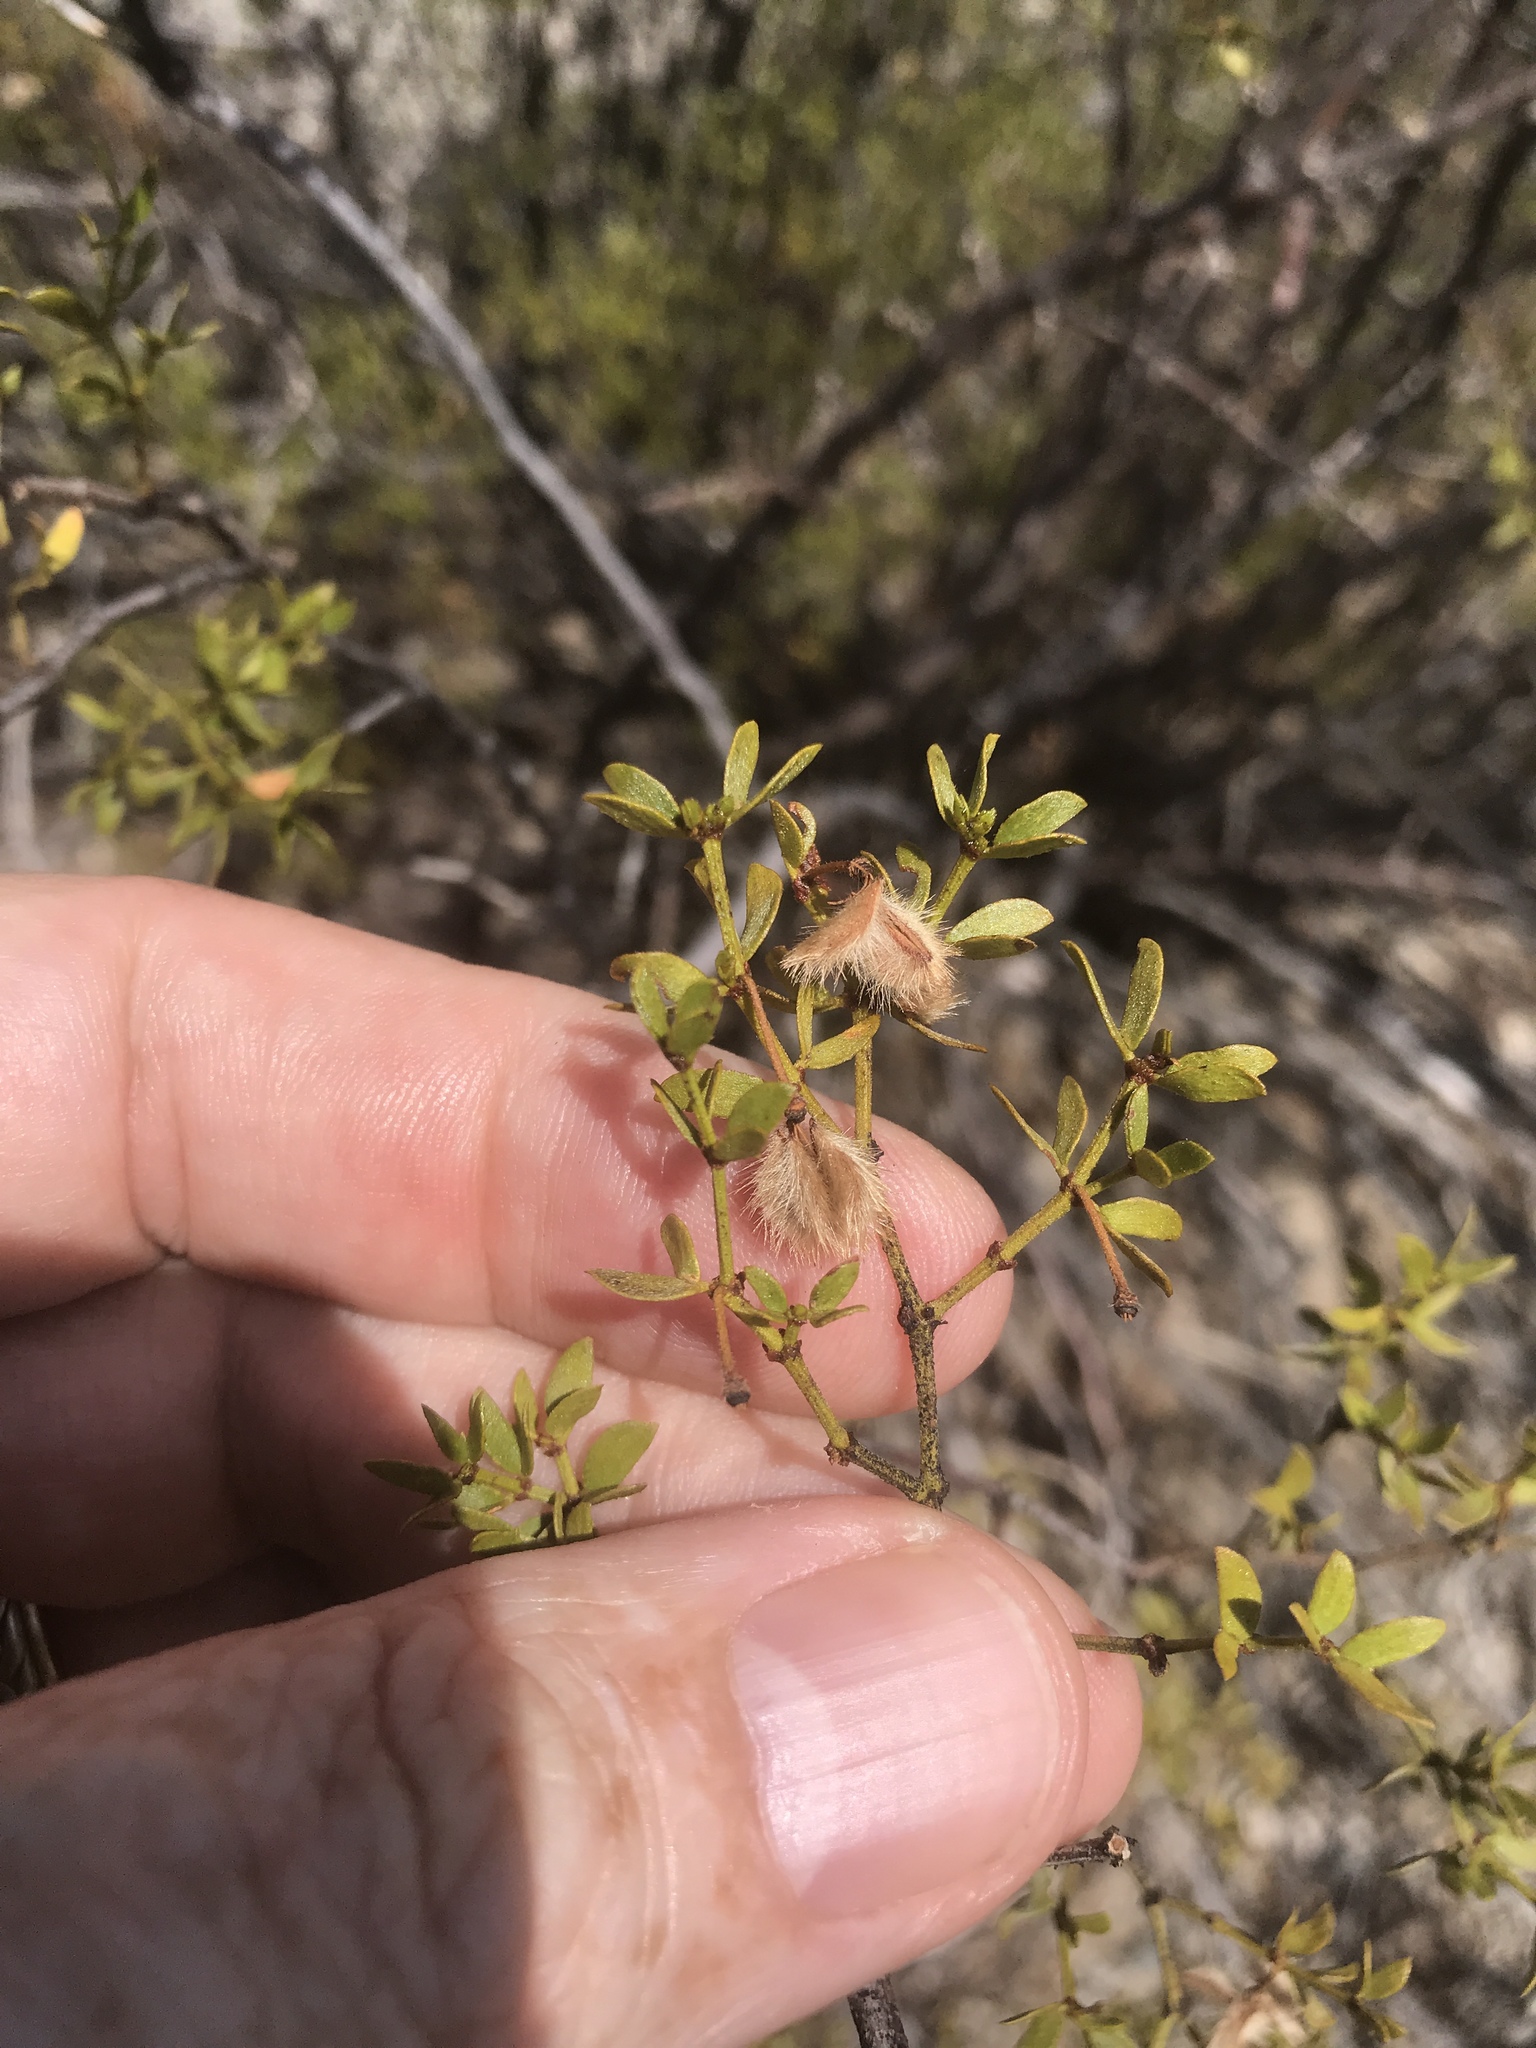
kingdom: Plantae
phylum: Tracheophyta
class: Magnoliopsida
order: Zygophyllales
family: Zygophyllaceae
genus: Larrea
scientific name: Larrea tridentata
